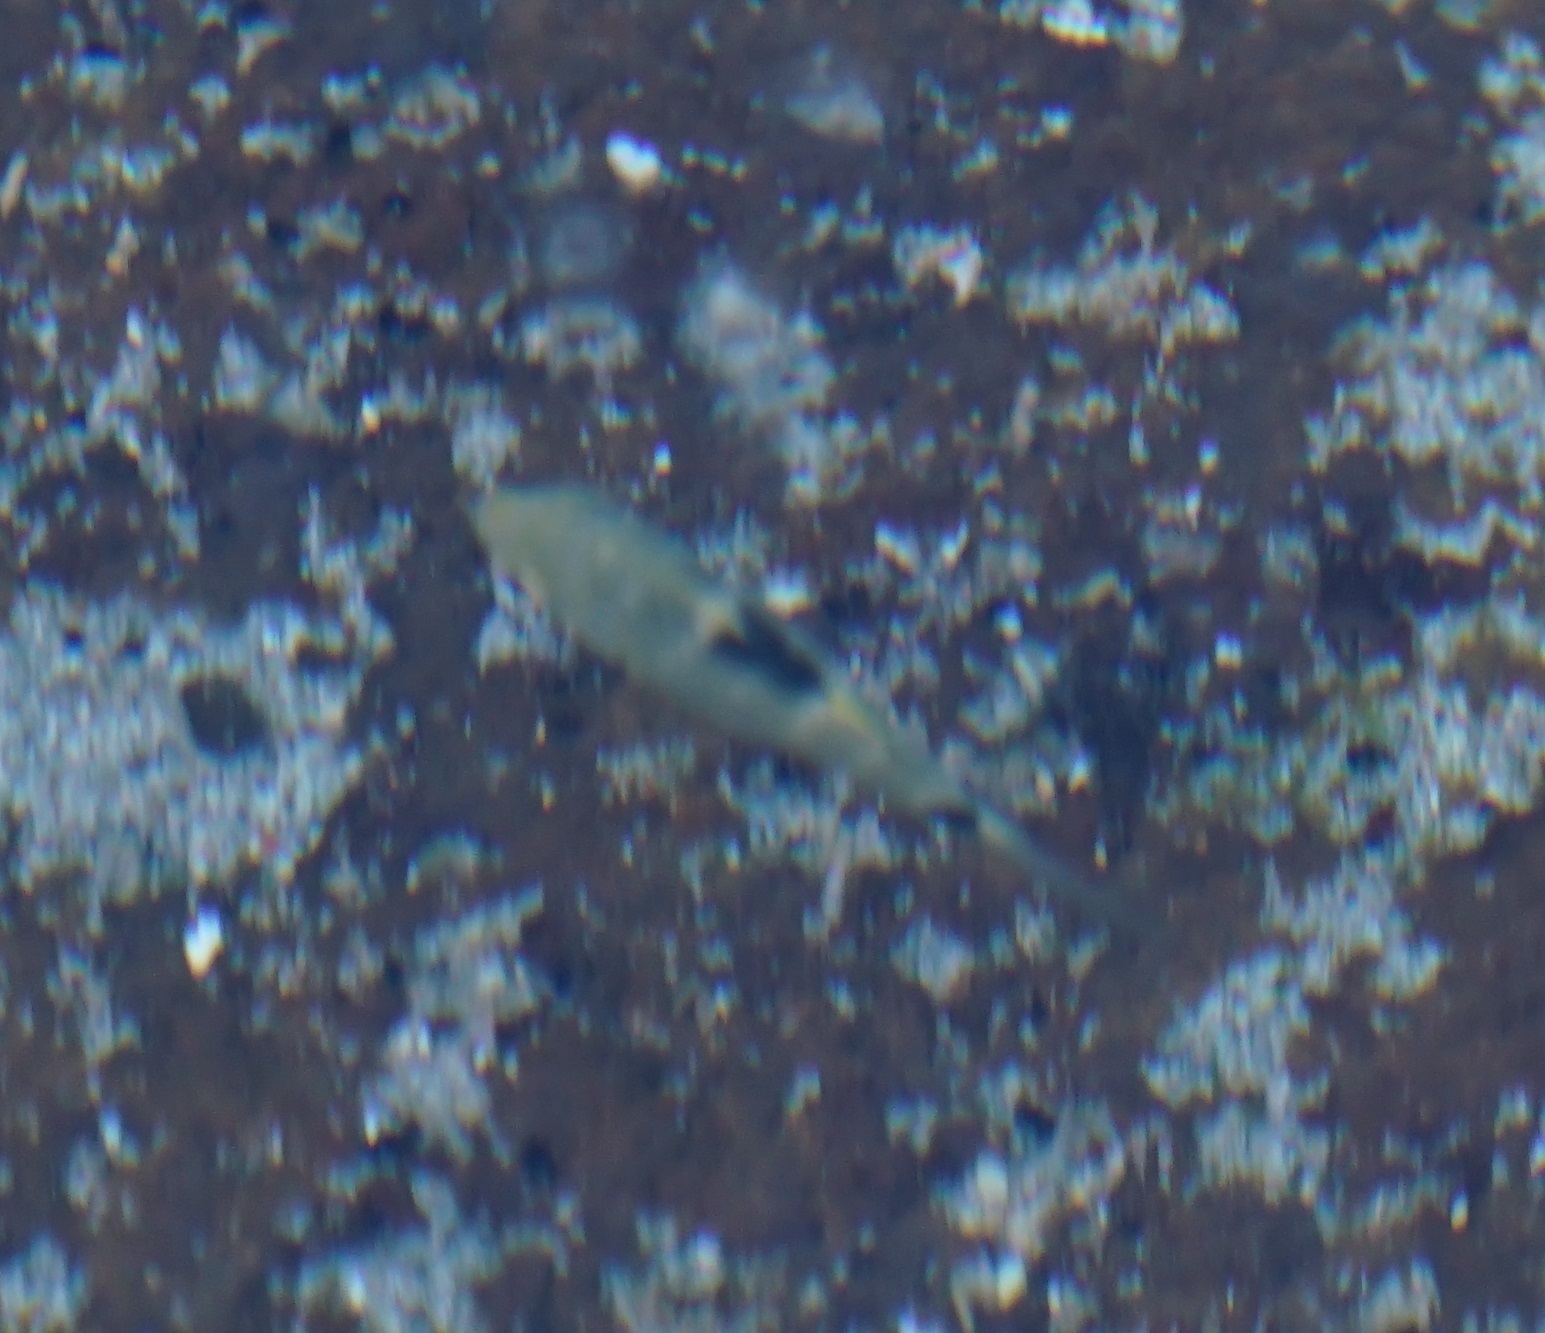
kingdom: Animalia
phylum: Chordata
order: Perciformes
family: Pomacentridae
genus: Abudefduf
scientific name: Abudefduf sordidus
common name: Blackspot sergeant
